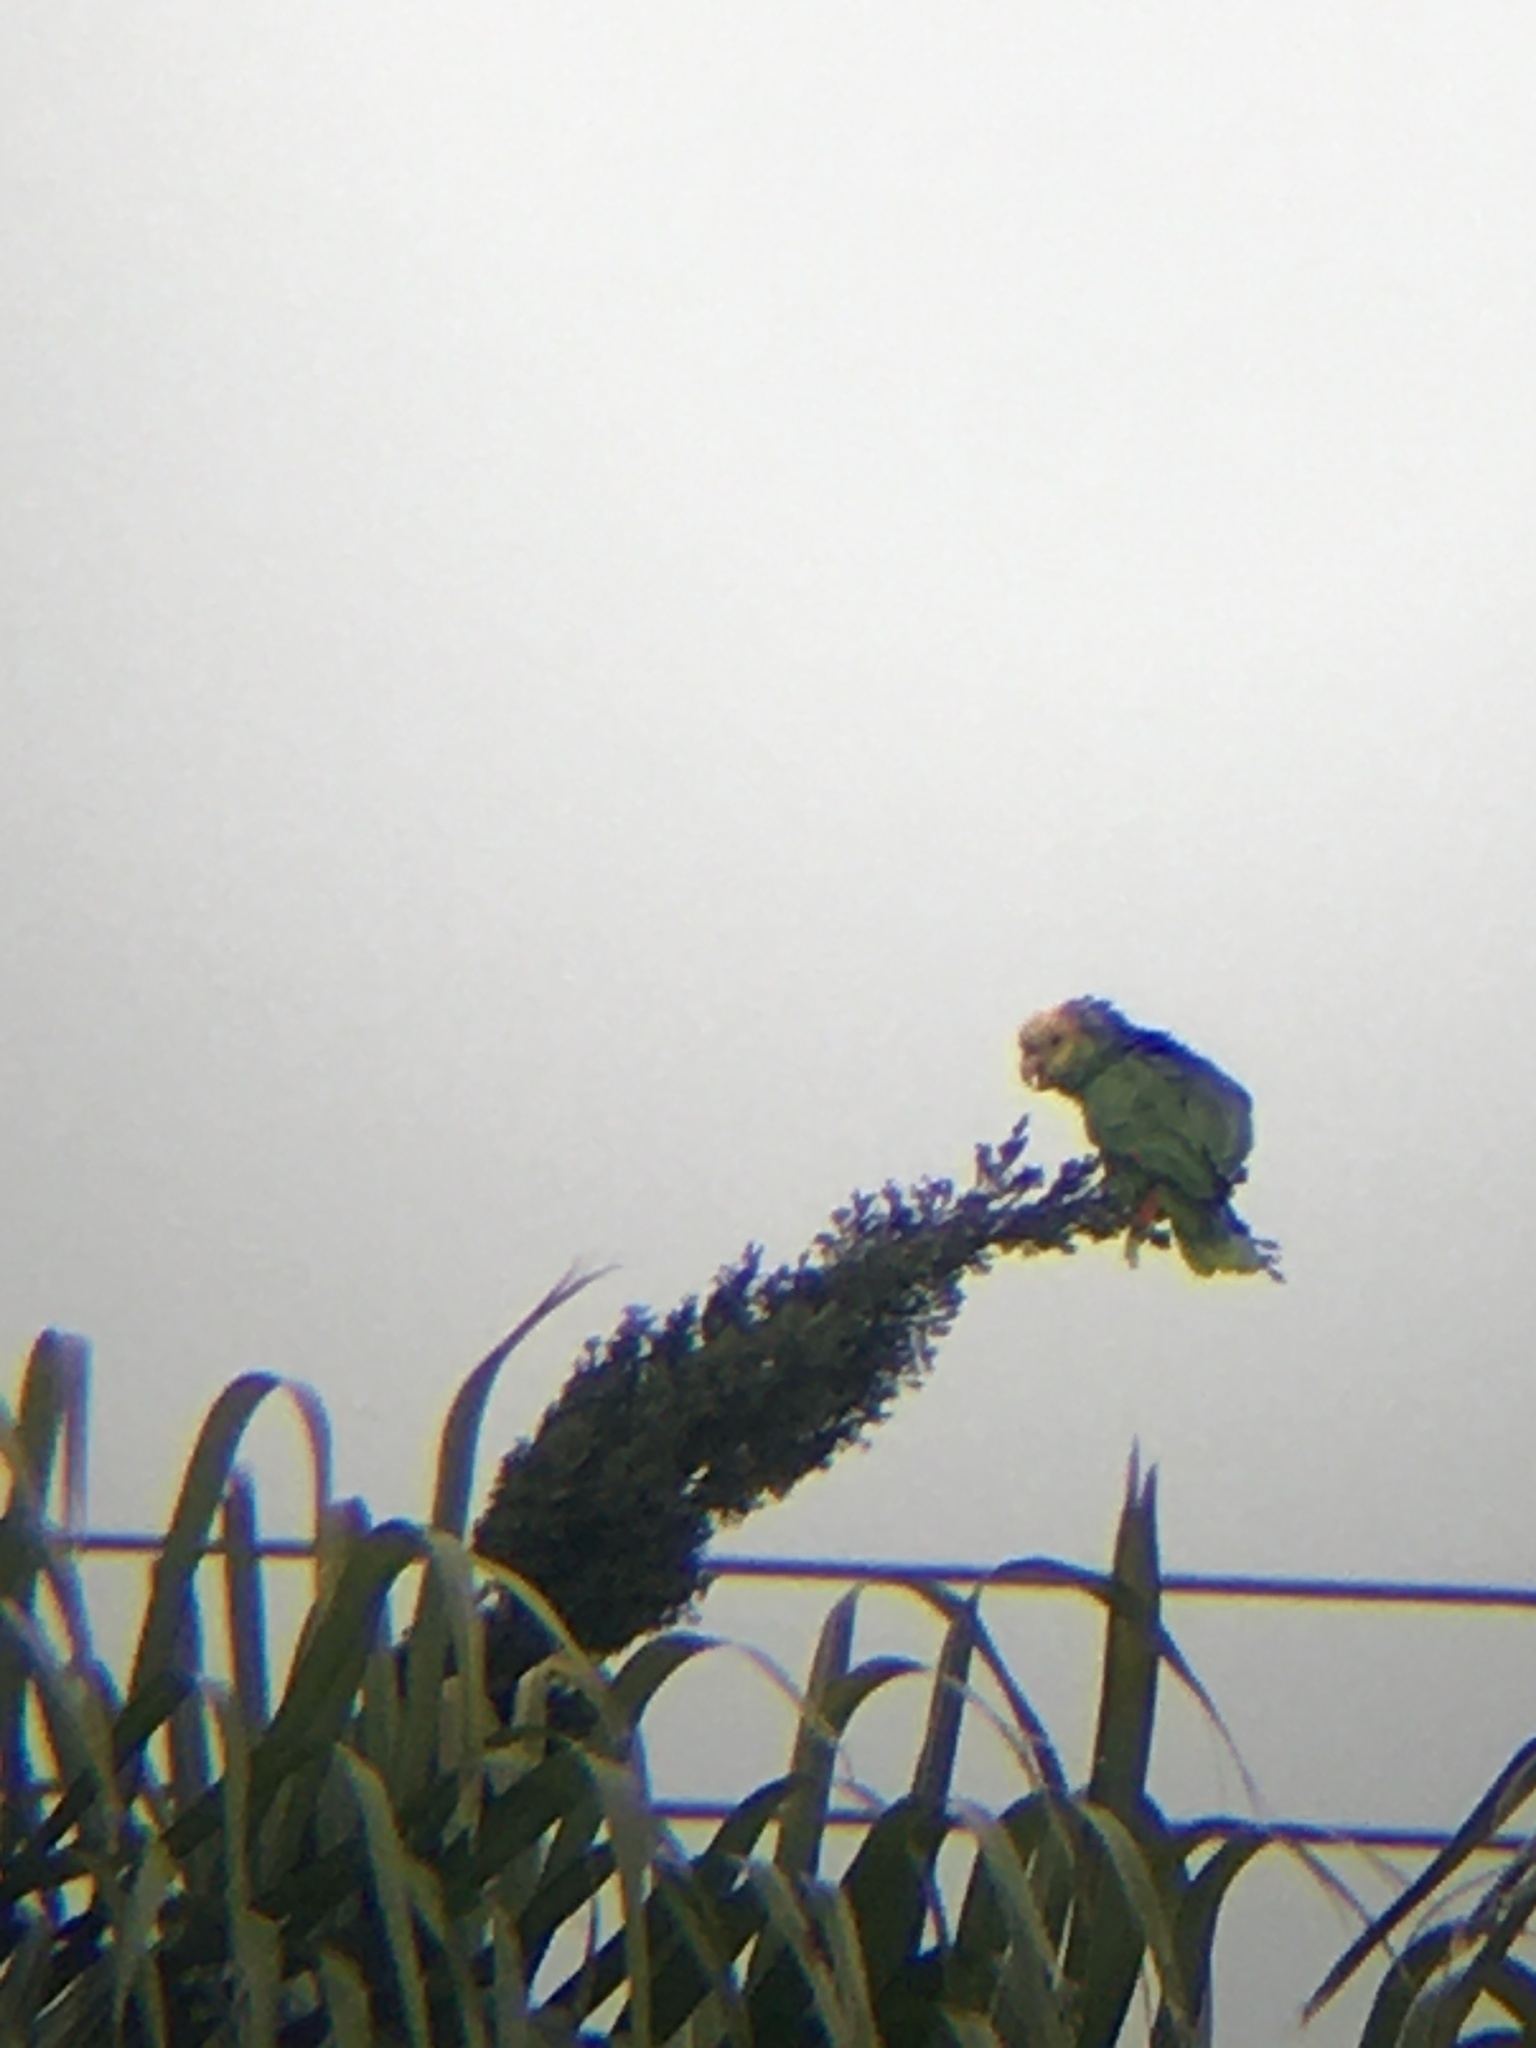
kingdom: Animalia
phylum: Chordata
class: Aves
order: Psittaciformes
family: Psittacidae
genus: Amazona
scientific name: Amazona oratrix
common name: Yellow-headed amazon
